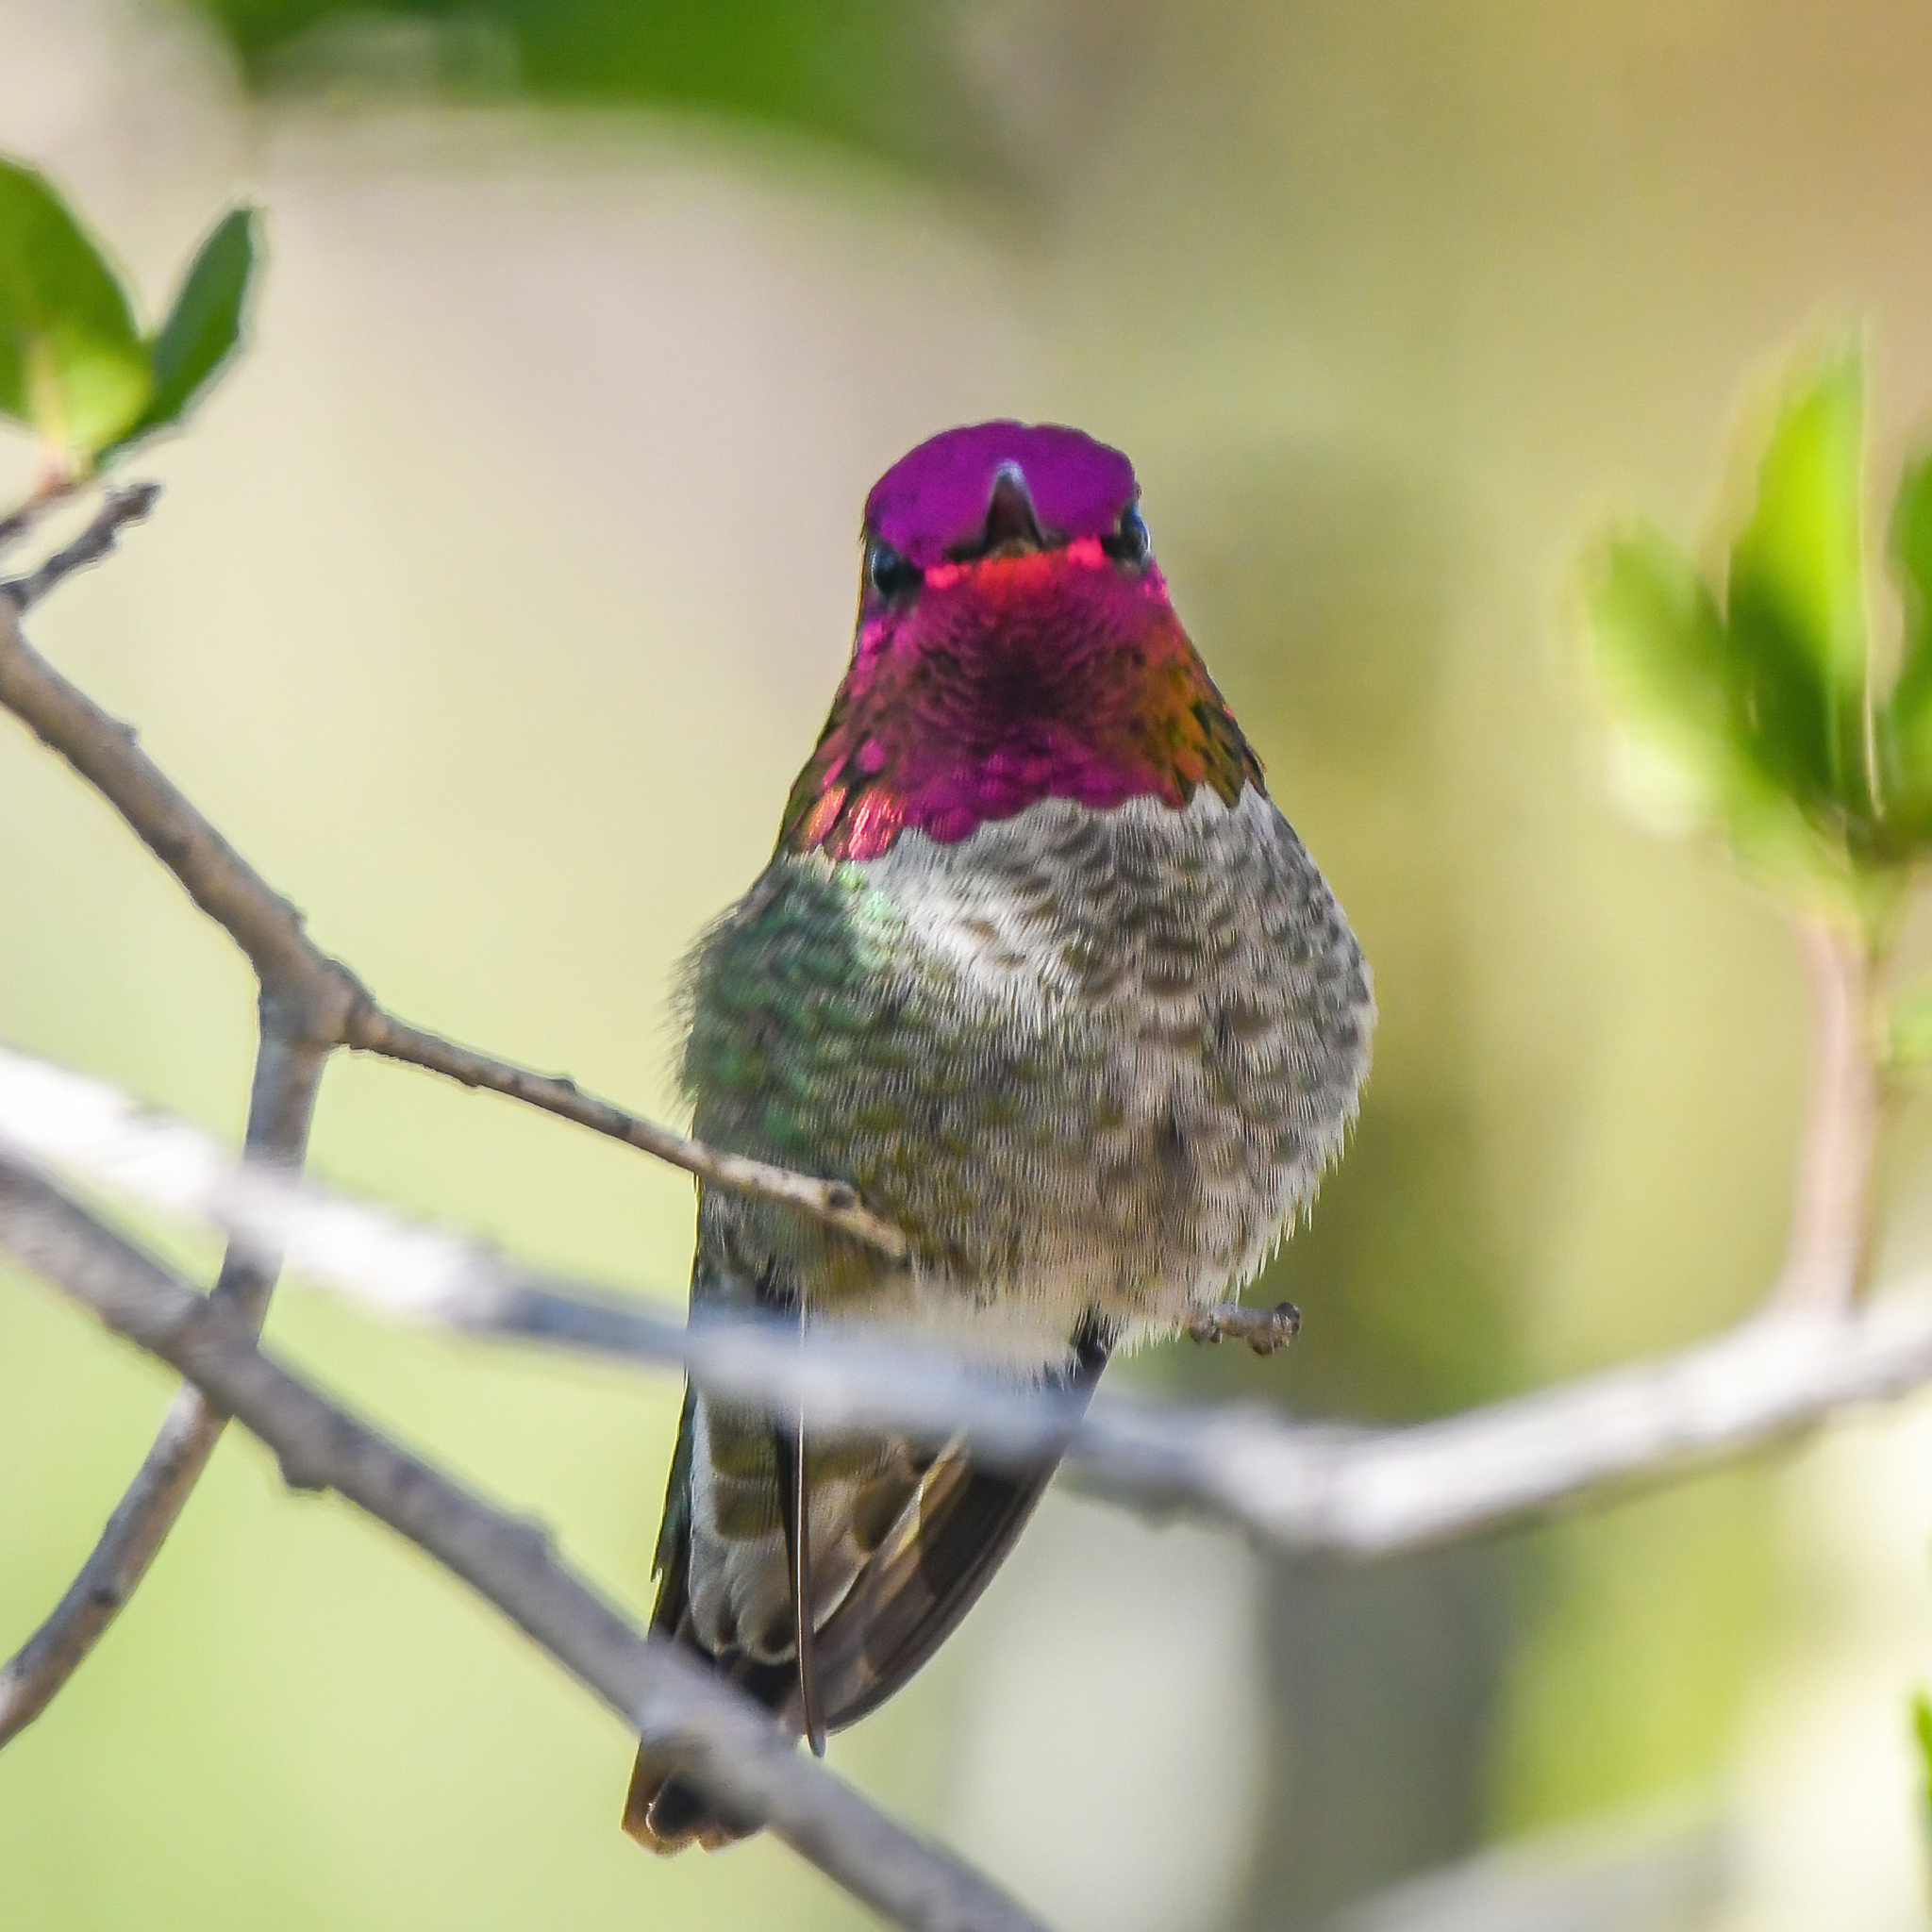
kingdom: Animalia
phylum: Chordata
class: Aves
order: Apodiformes
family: Trochilidae
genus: Calypte
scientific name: Calypte anna
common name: Anna's hummingbird
